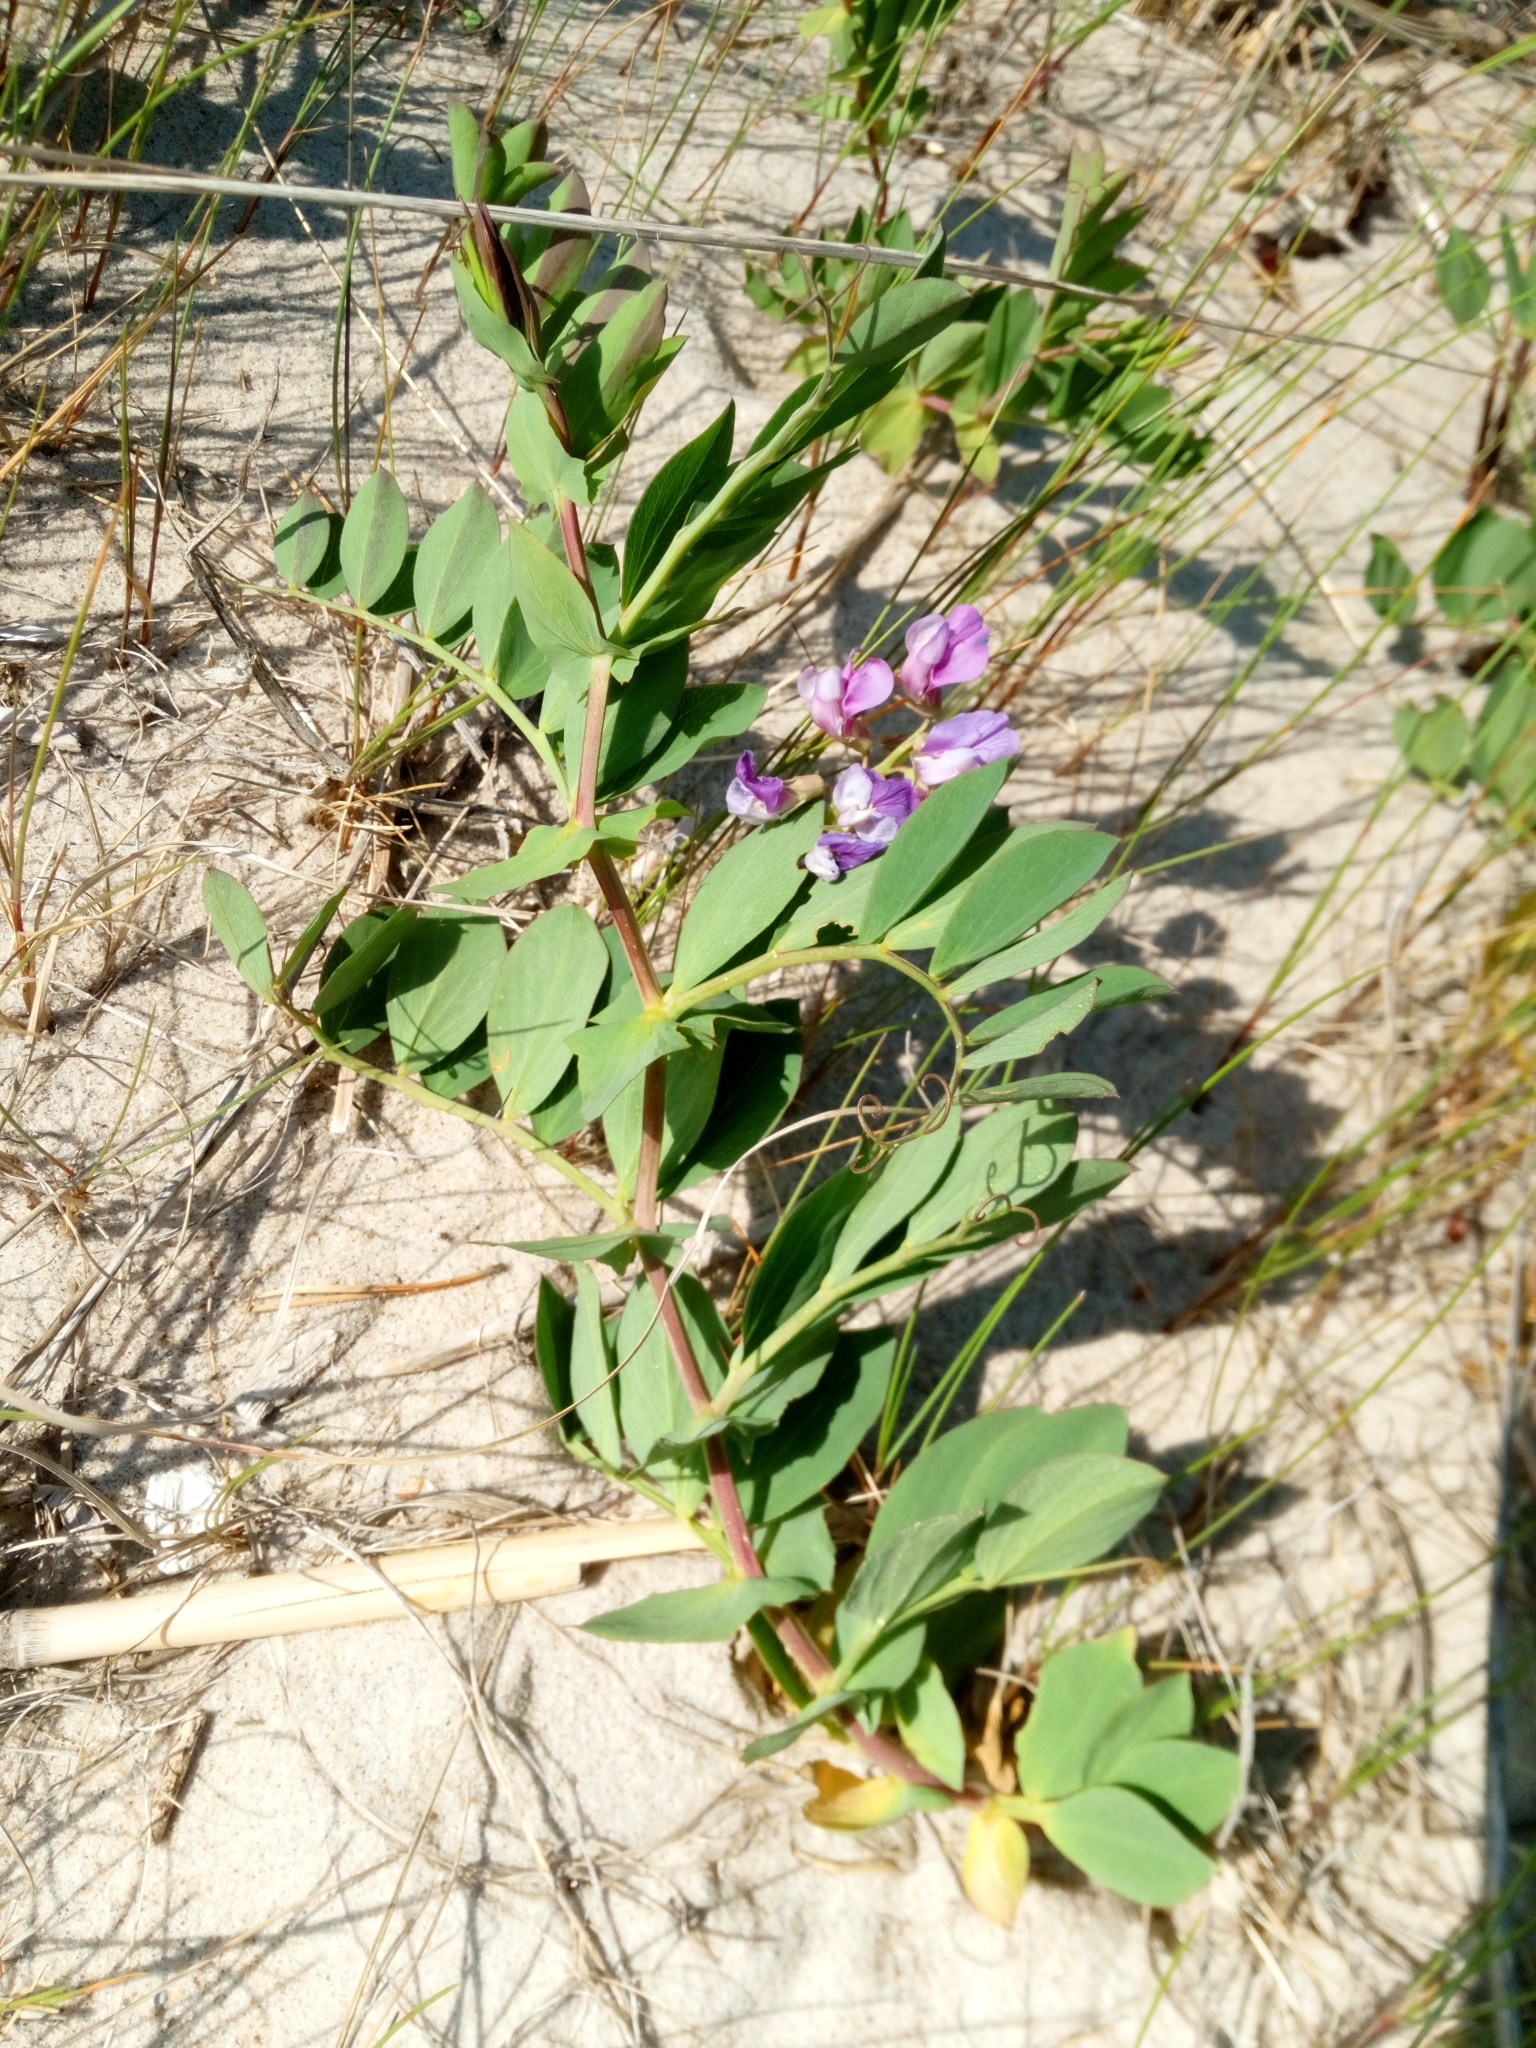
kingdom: Plantae
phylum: Tracheophyta
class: Magnoliopsida
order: Fabales
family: Fabaceae
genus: Lathyrus
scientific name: Lathyrus japonicus
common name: Sea pea
